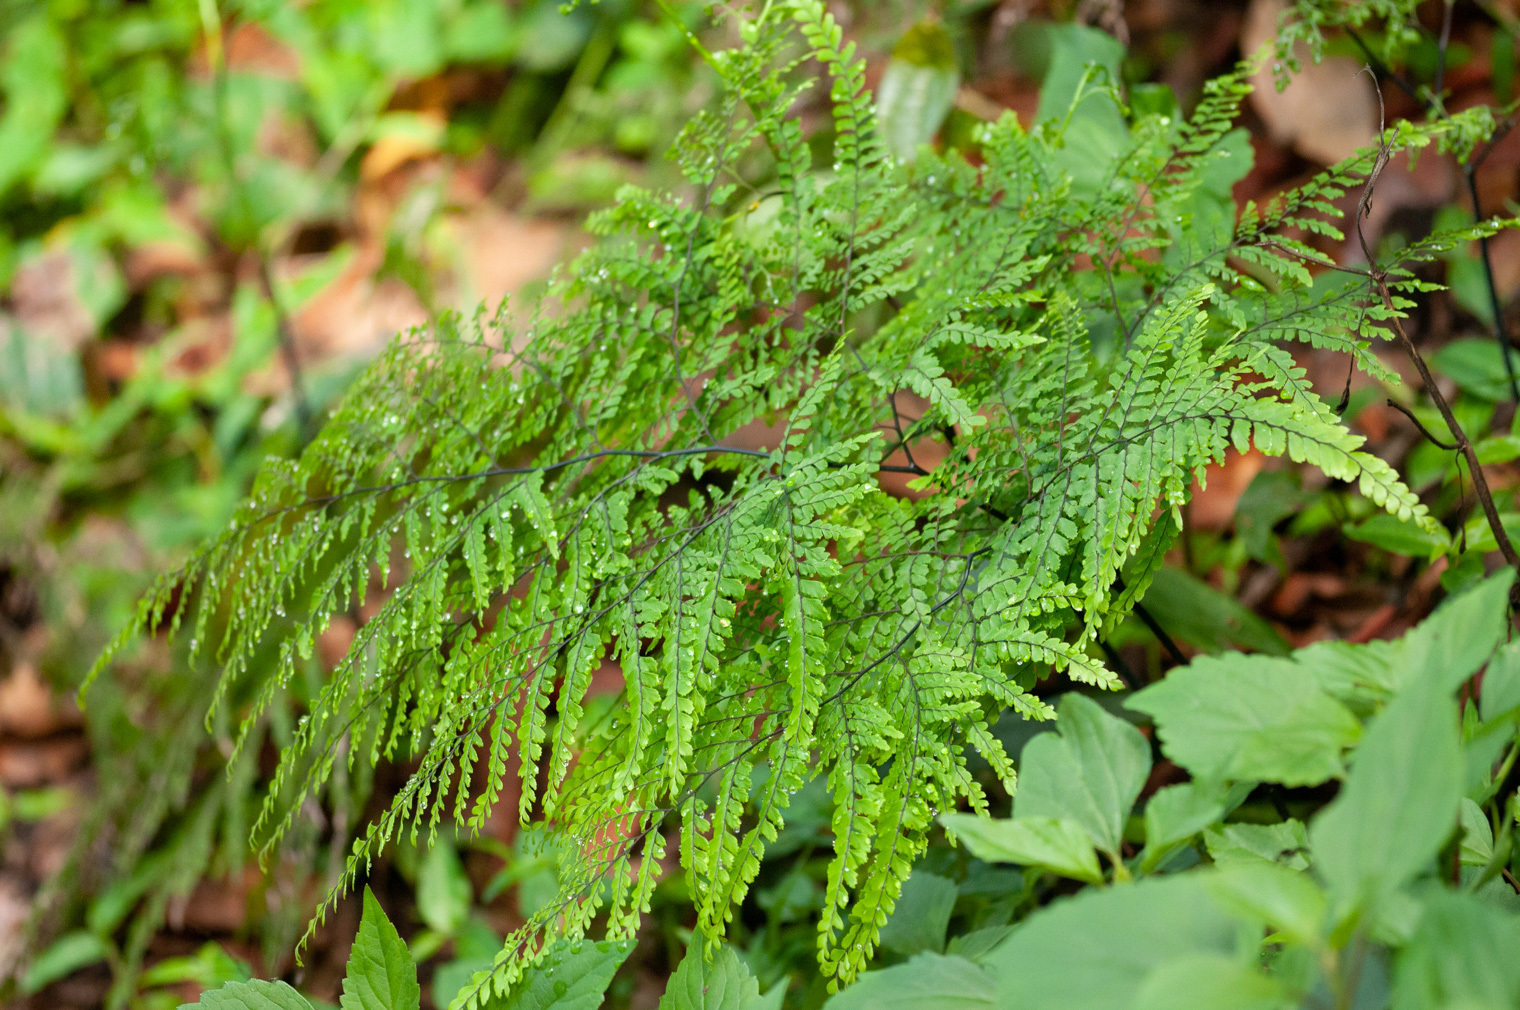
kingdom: Plantae
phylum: Tracheophyta
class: Polypodiopsida
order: Polypodiales
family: Pteridaceae
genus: Adiantum
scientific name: Adiantum formosum
